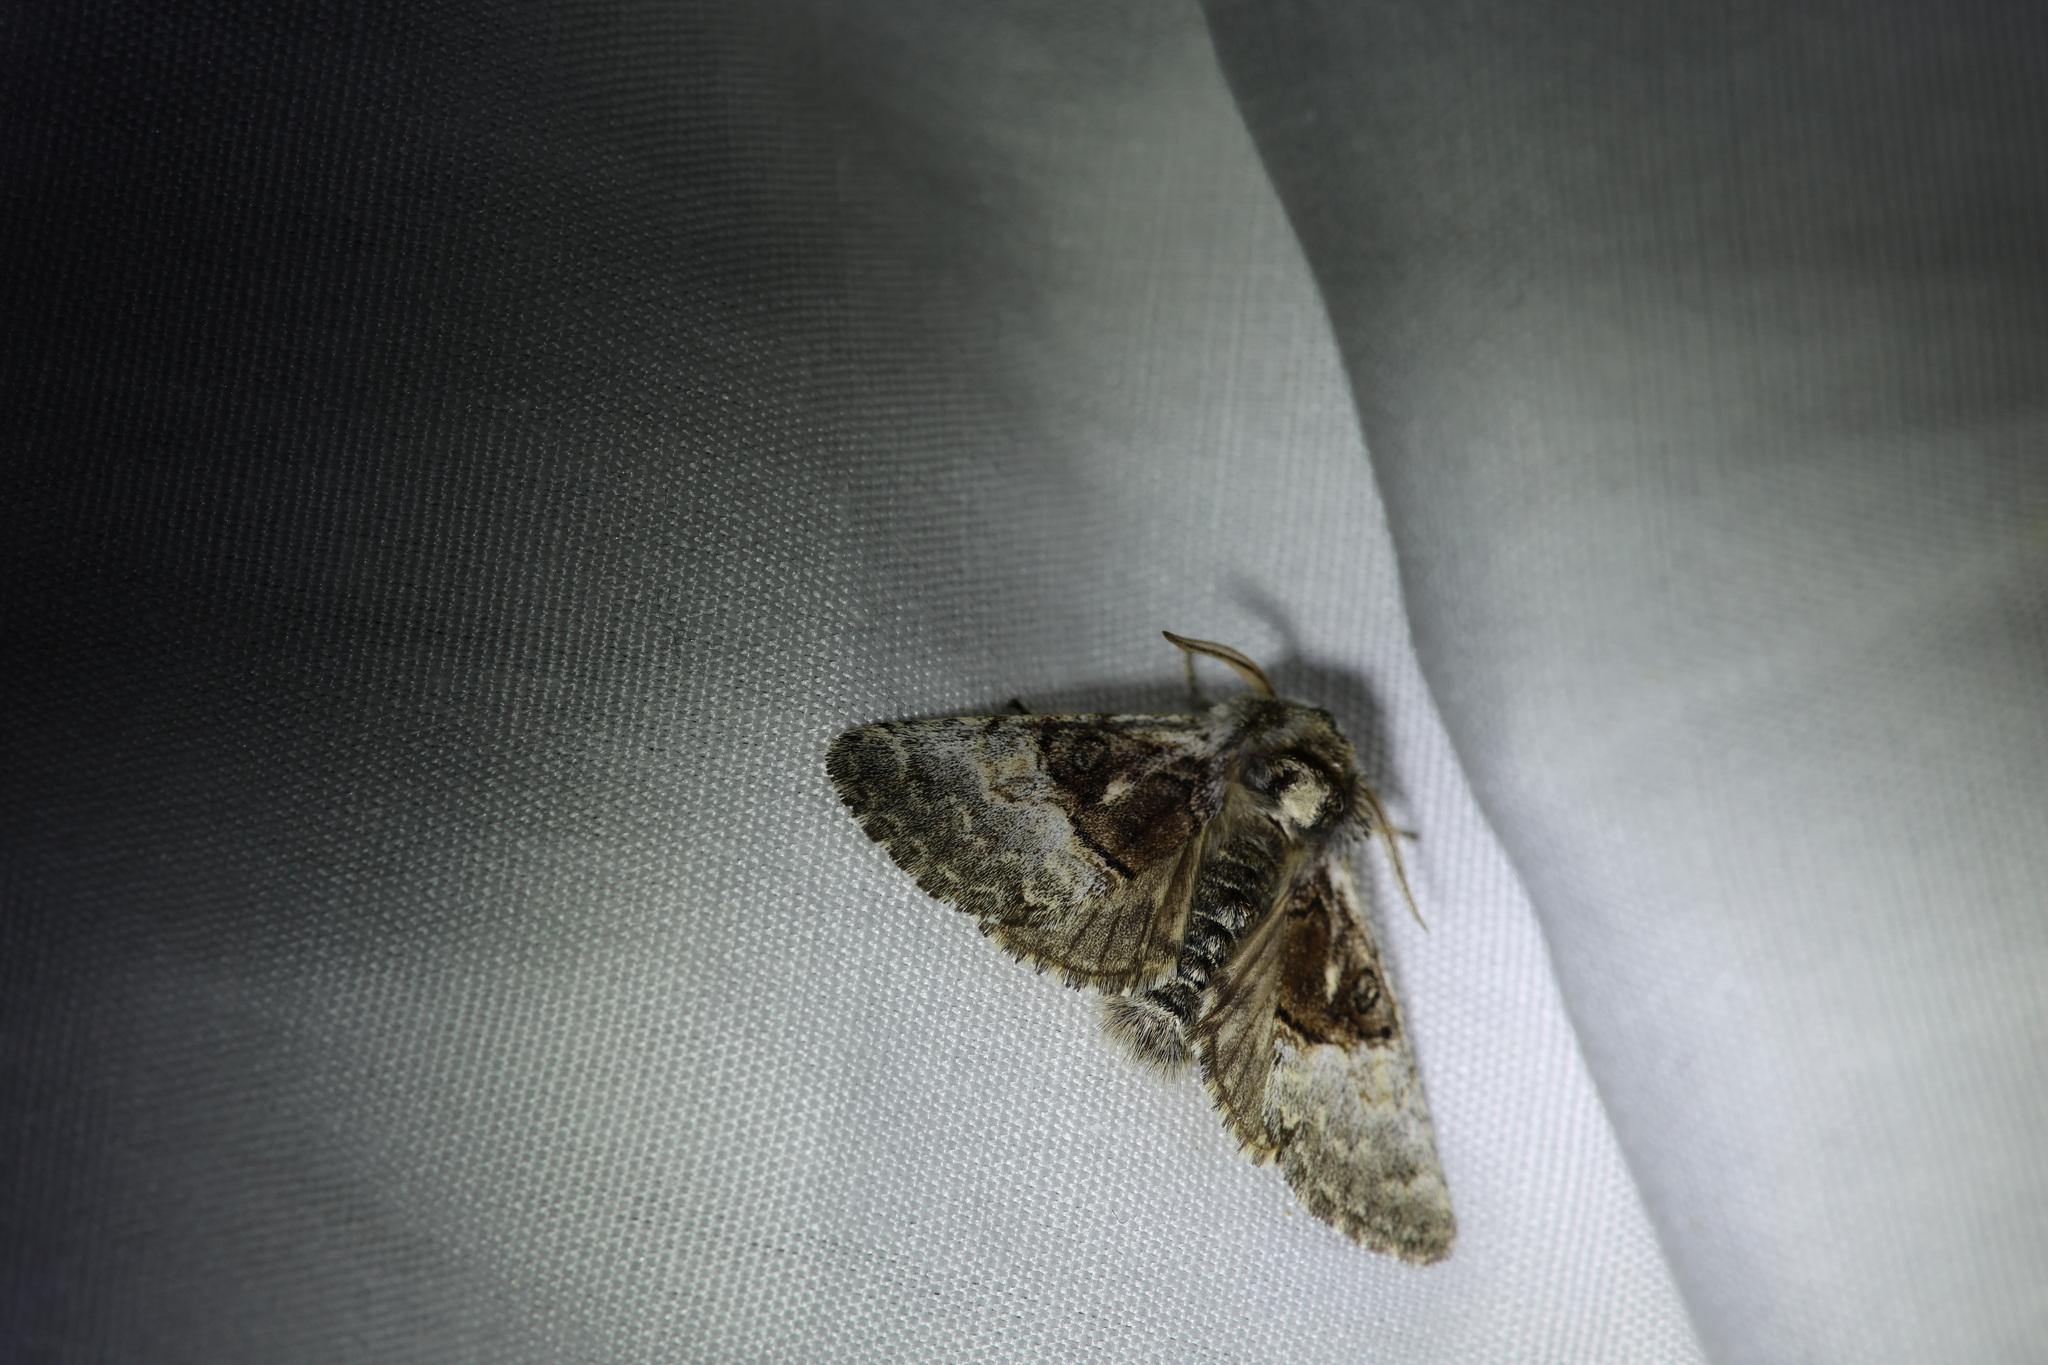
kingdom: Animalia
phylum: Arthropoda
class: Insecta
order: Lepidoptera
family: Noctuidae
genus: Colocasia
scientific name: Colocasia coryli
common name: Nut-tree tussock
